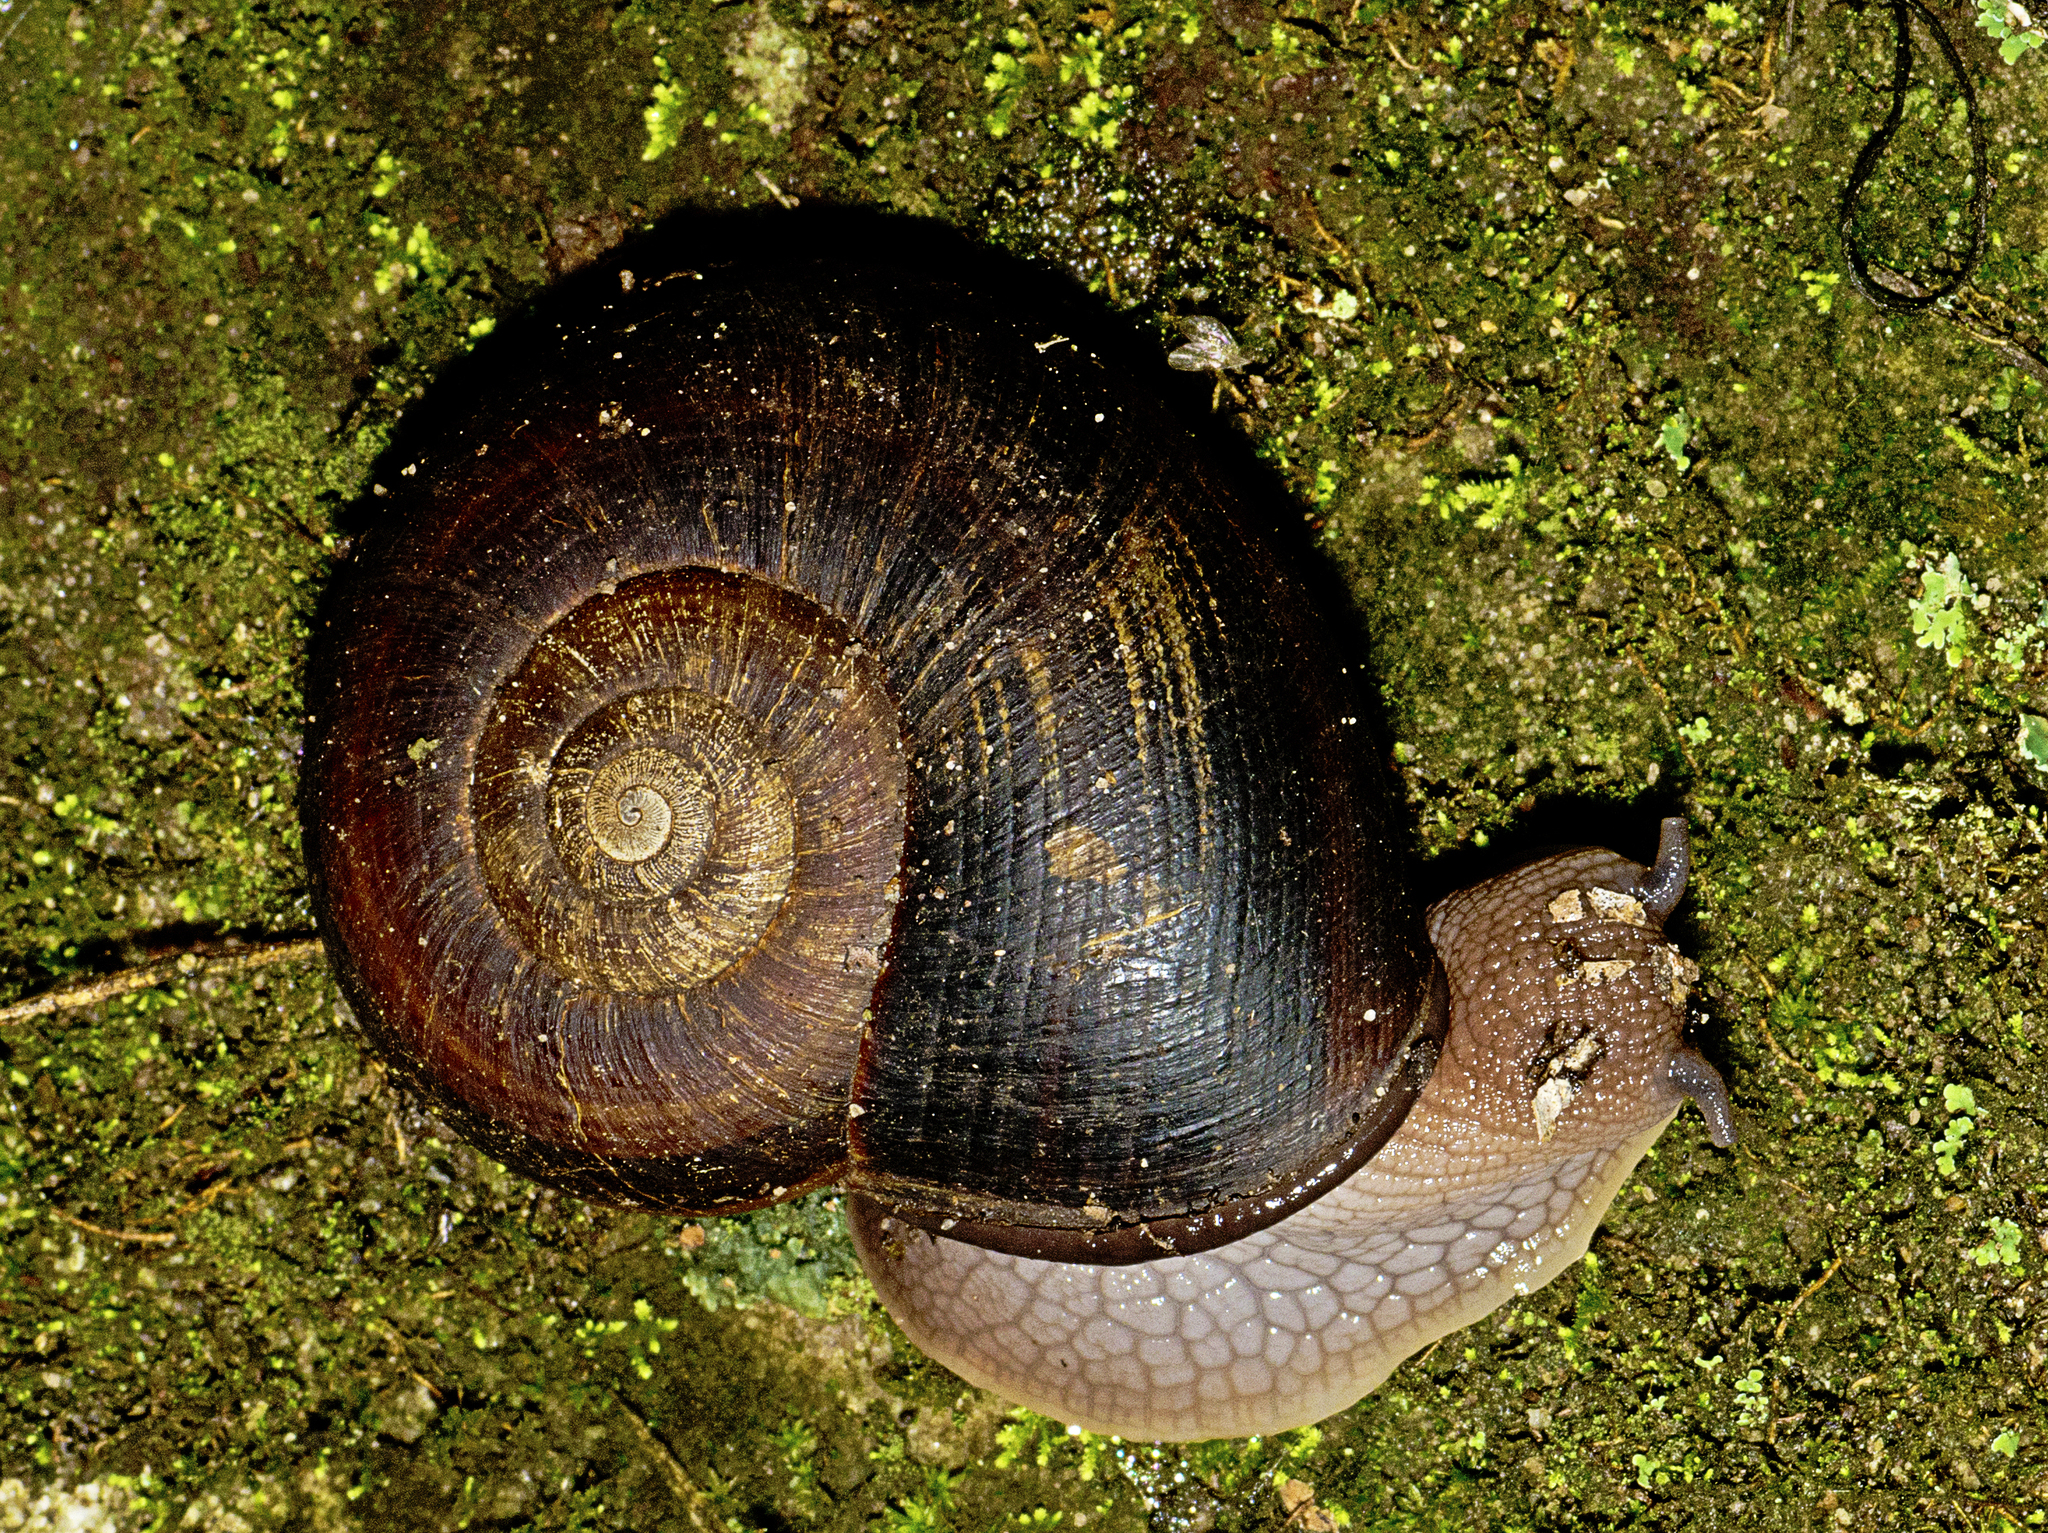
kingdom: Animalia
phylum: Mollusca
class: Gastropoda
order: Stylommatophora
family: Caryodidae
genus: Pedinogyra
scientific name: Pedinogyra cania
